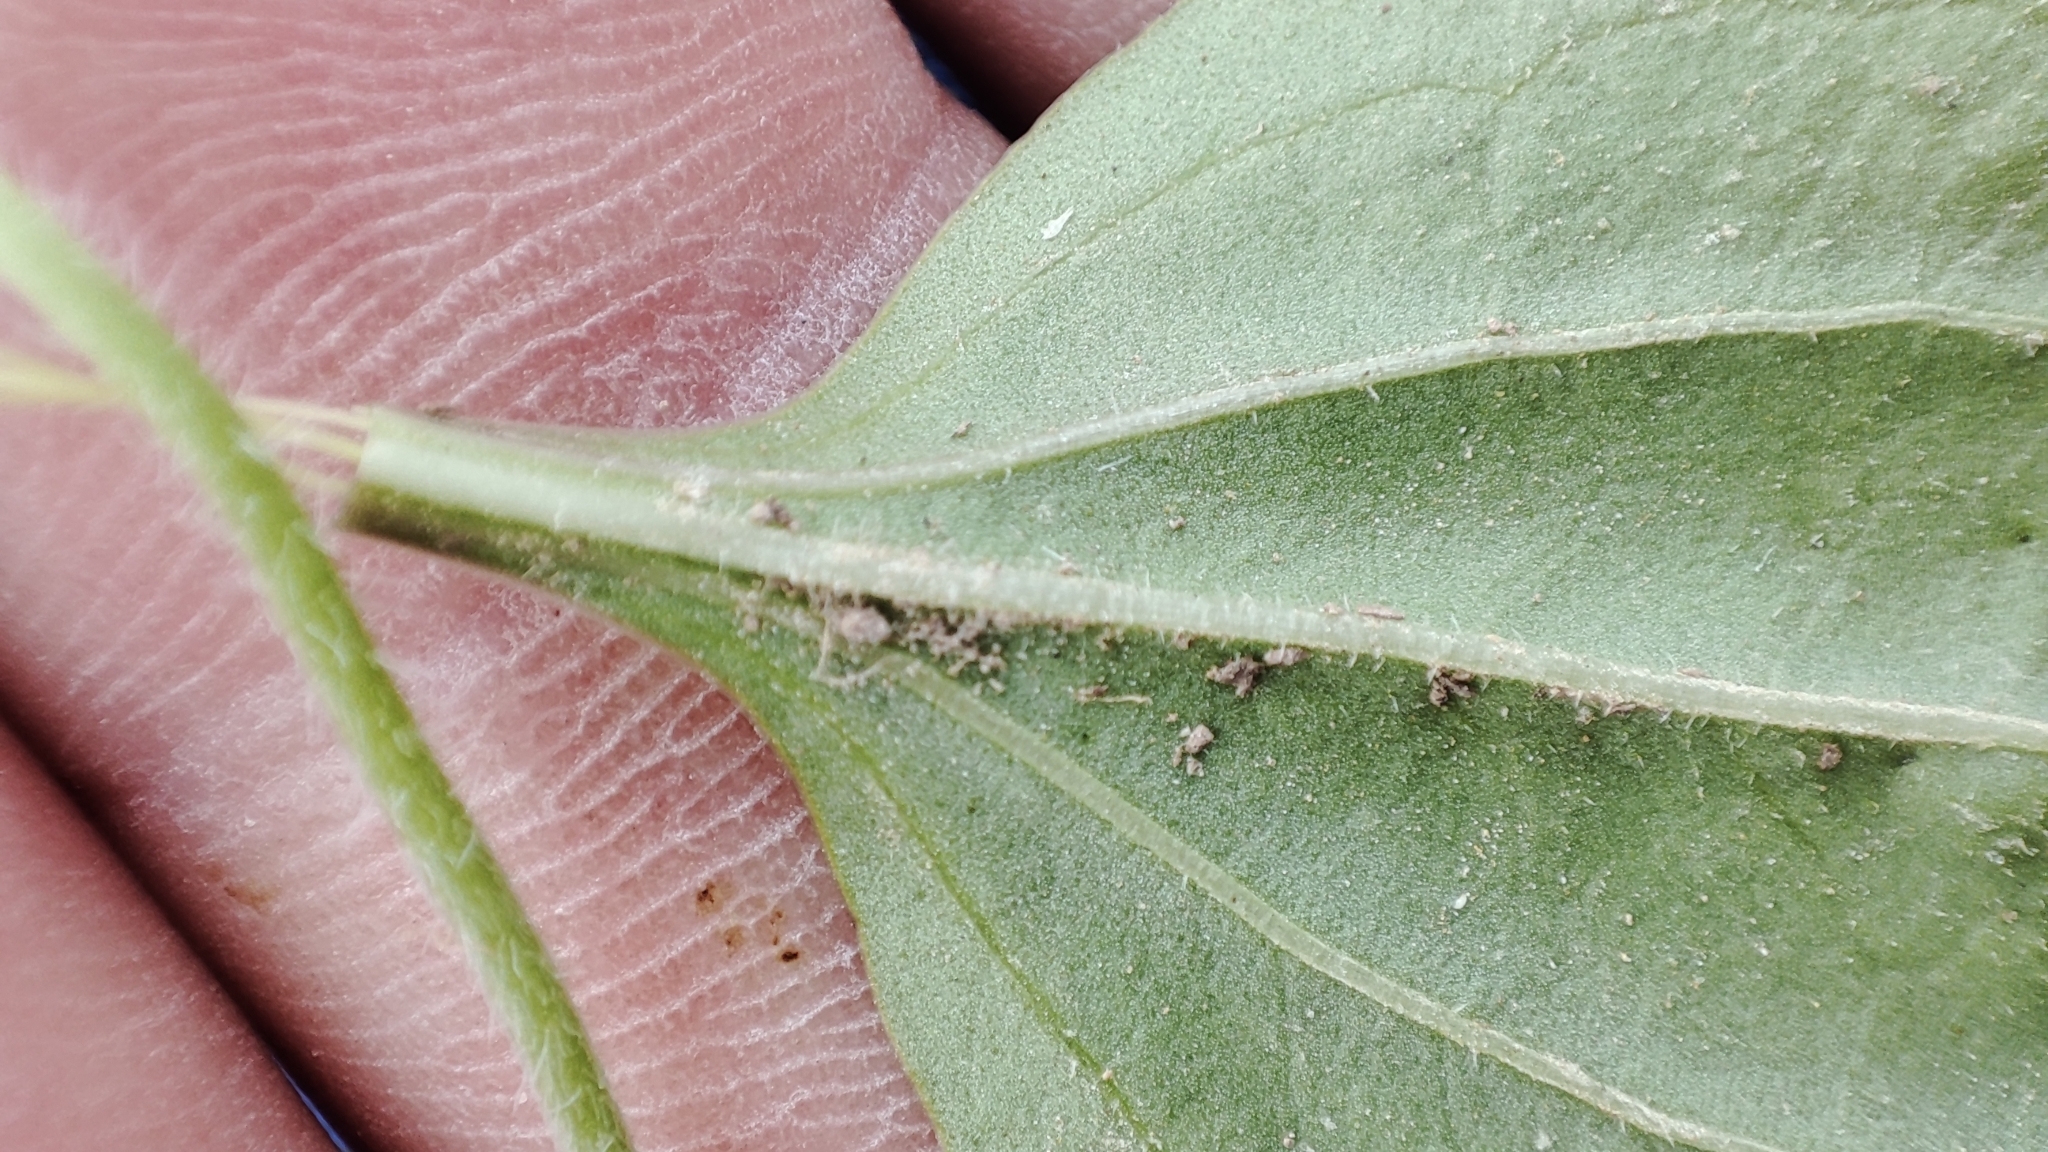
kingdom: Plantae
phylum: Tracheophyta
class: Magnoliopsida
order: Lamiales
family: Plantaginaceae
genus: Plantago
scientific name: Plantago uliginosa
